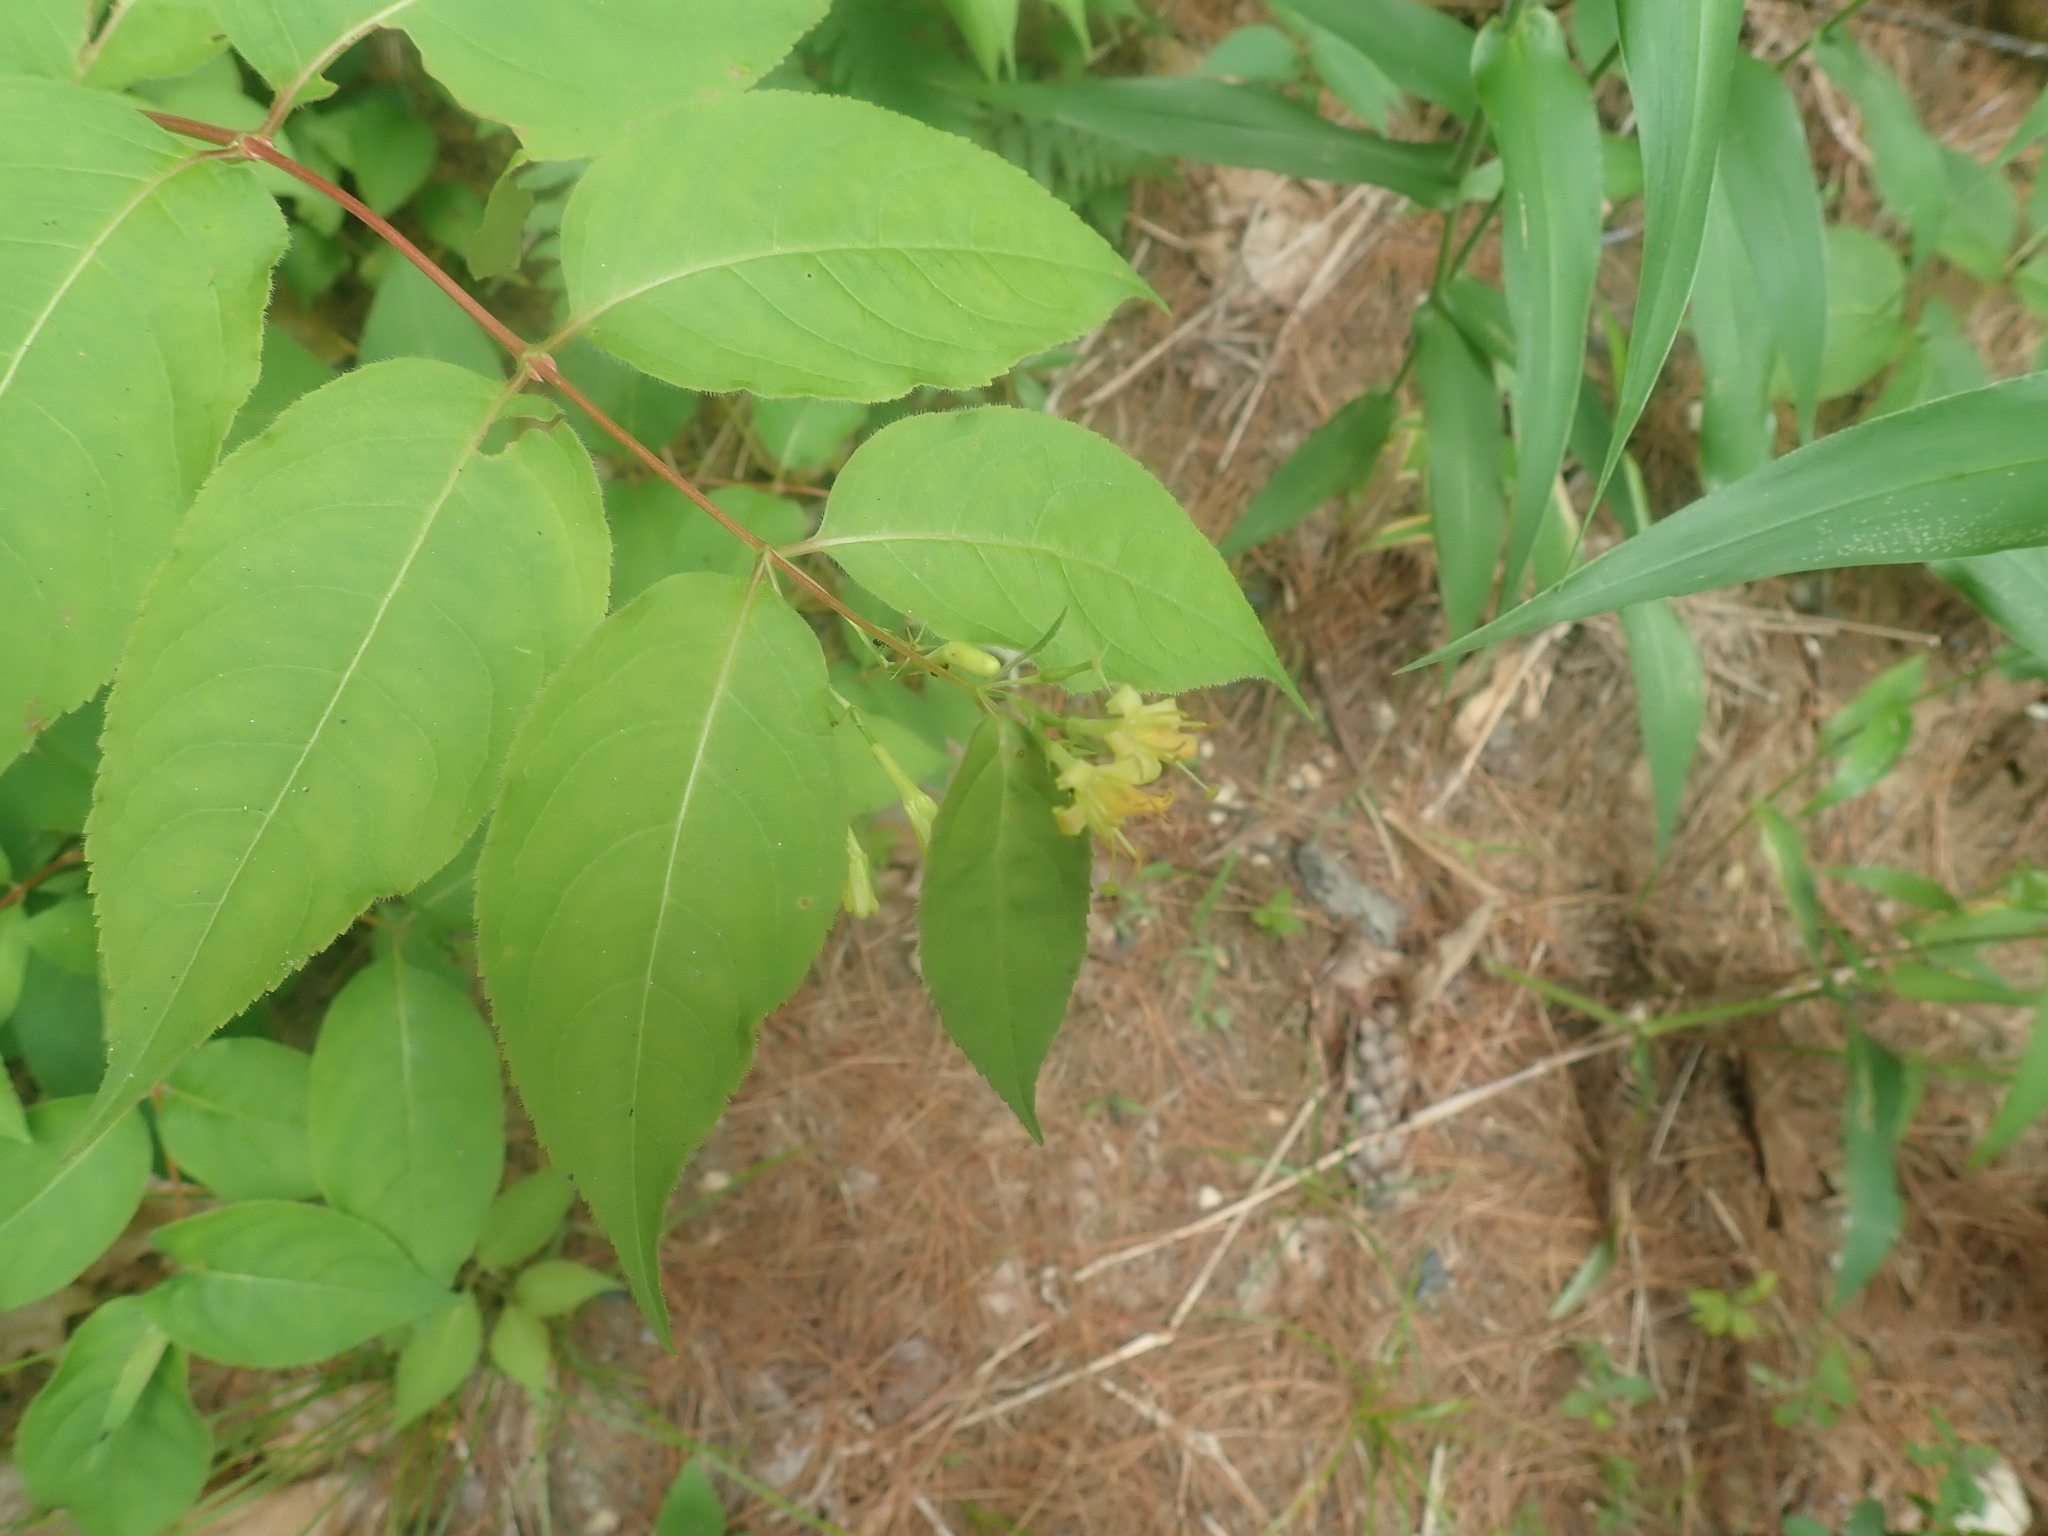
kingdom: Plantae
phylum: Tracheophyta
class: Magnoliopsida
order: Dipsacales
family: Caprifoliaceae
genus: Diervilla
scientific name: Diervilla lonicera
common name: Bush-honeysuckle
